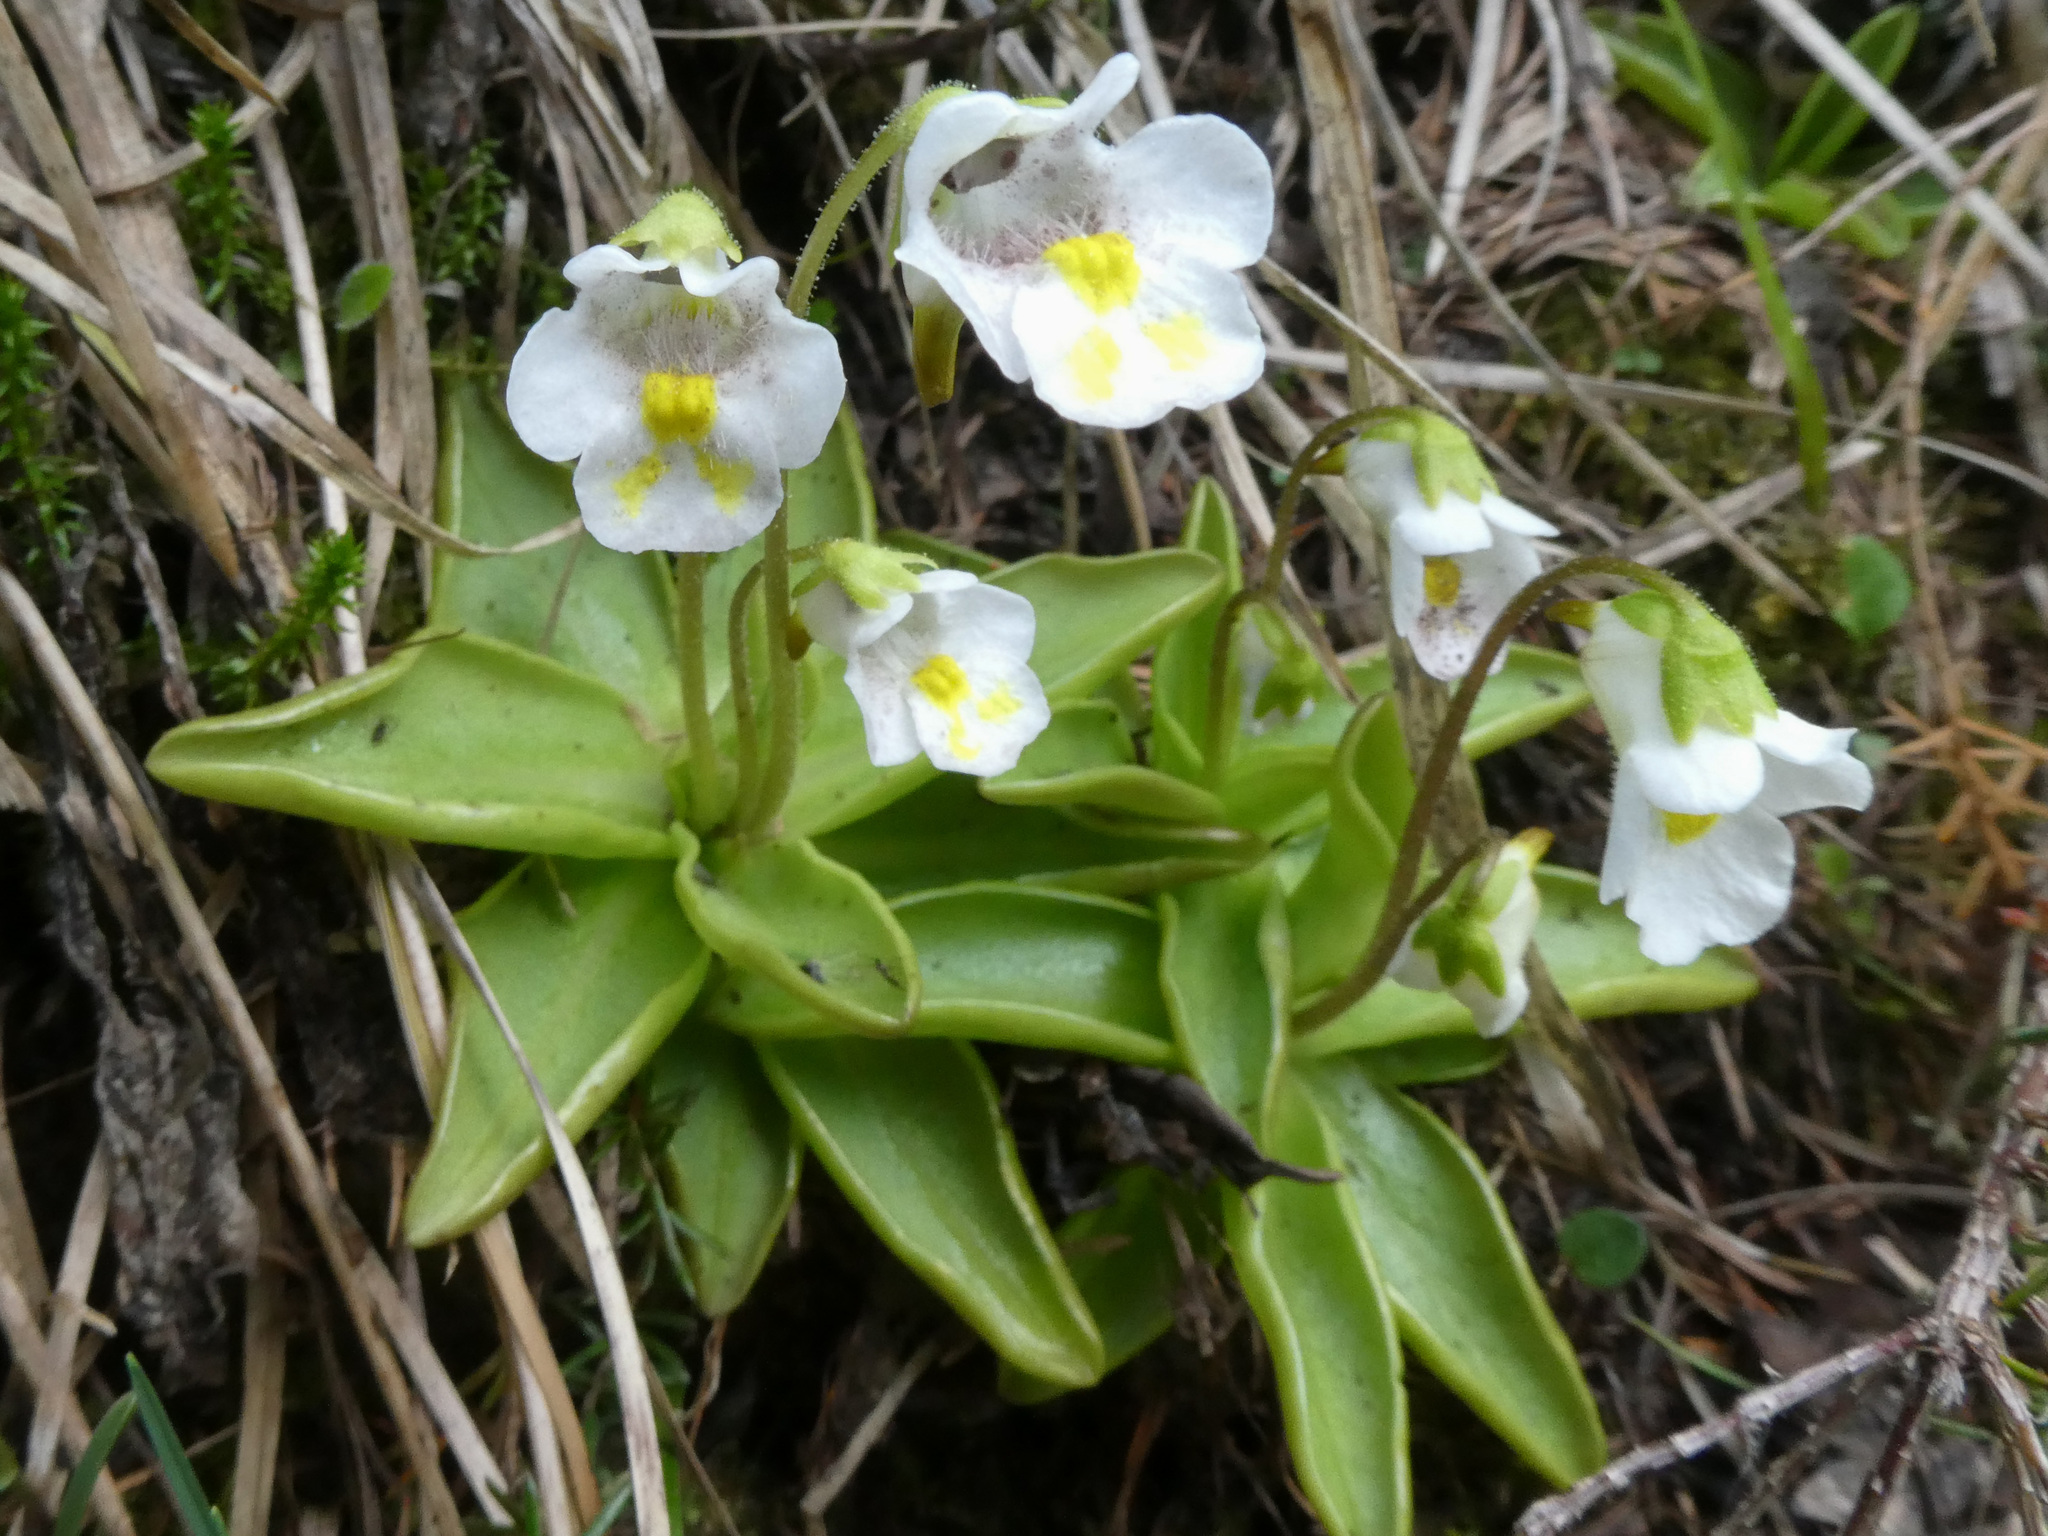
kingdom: Plantae
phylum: Tracheophyta
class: Magnoliopsida
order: Lamiales
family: Lentibulariaceae
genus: Pinguicula
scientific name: Pinguicula alpina
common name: Alpine butterwort
